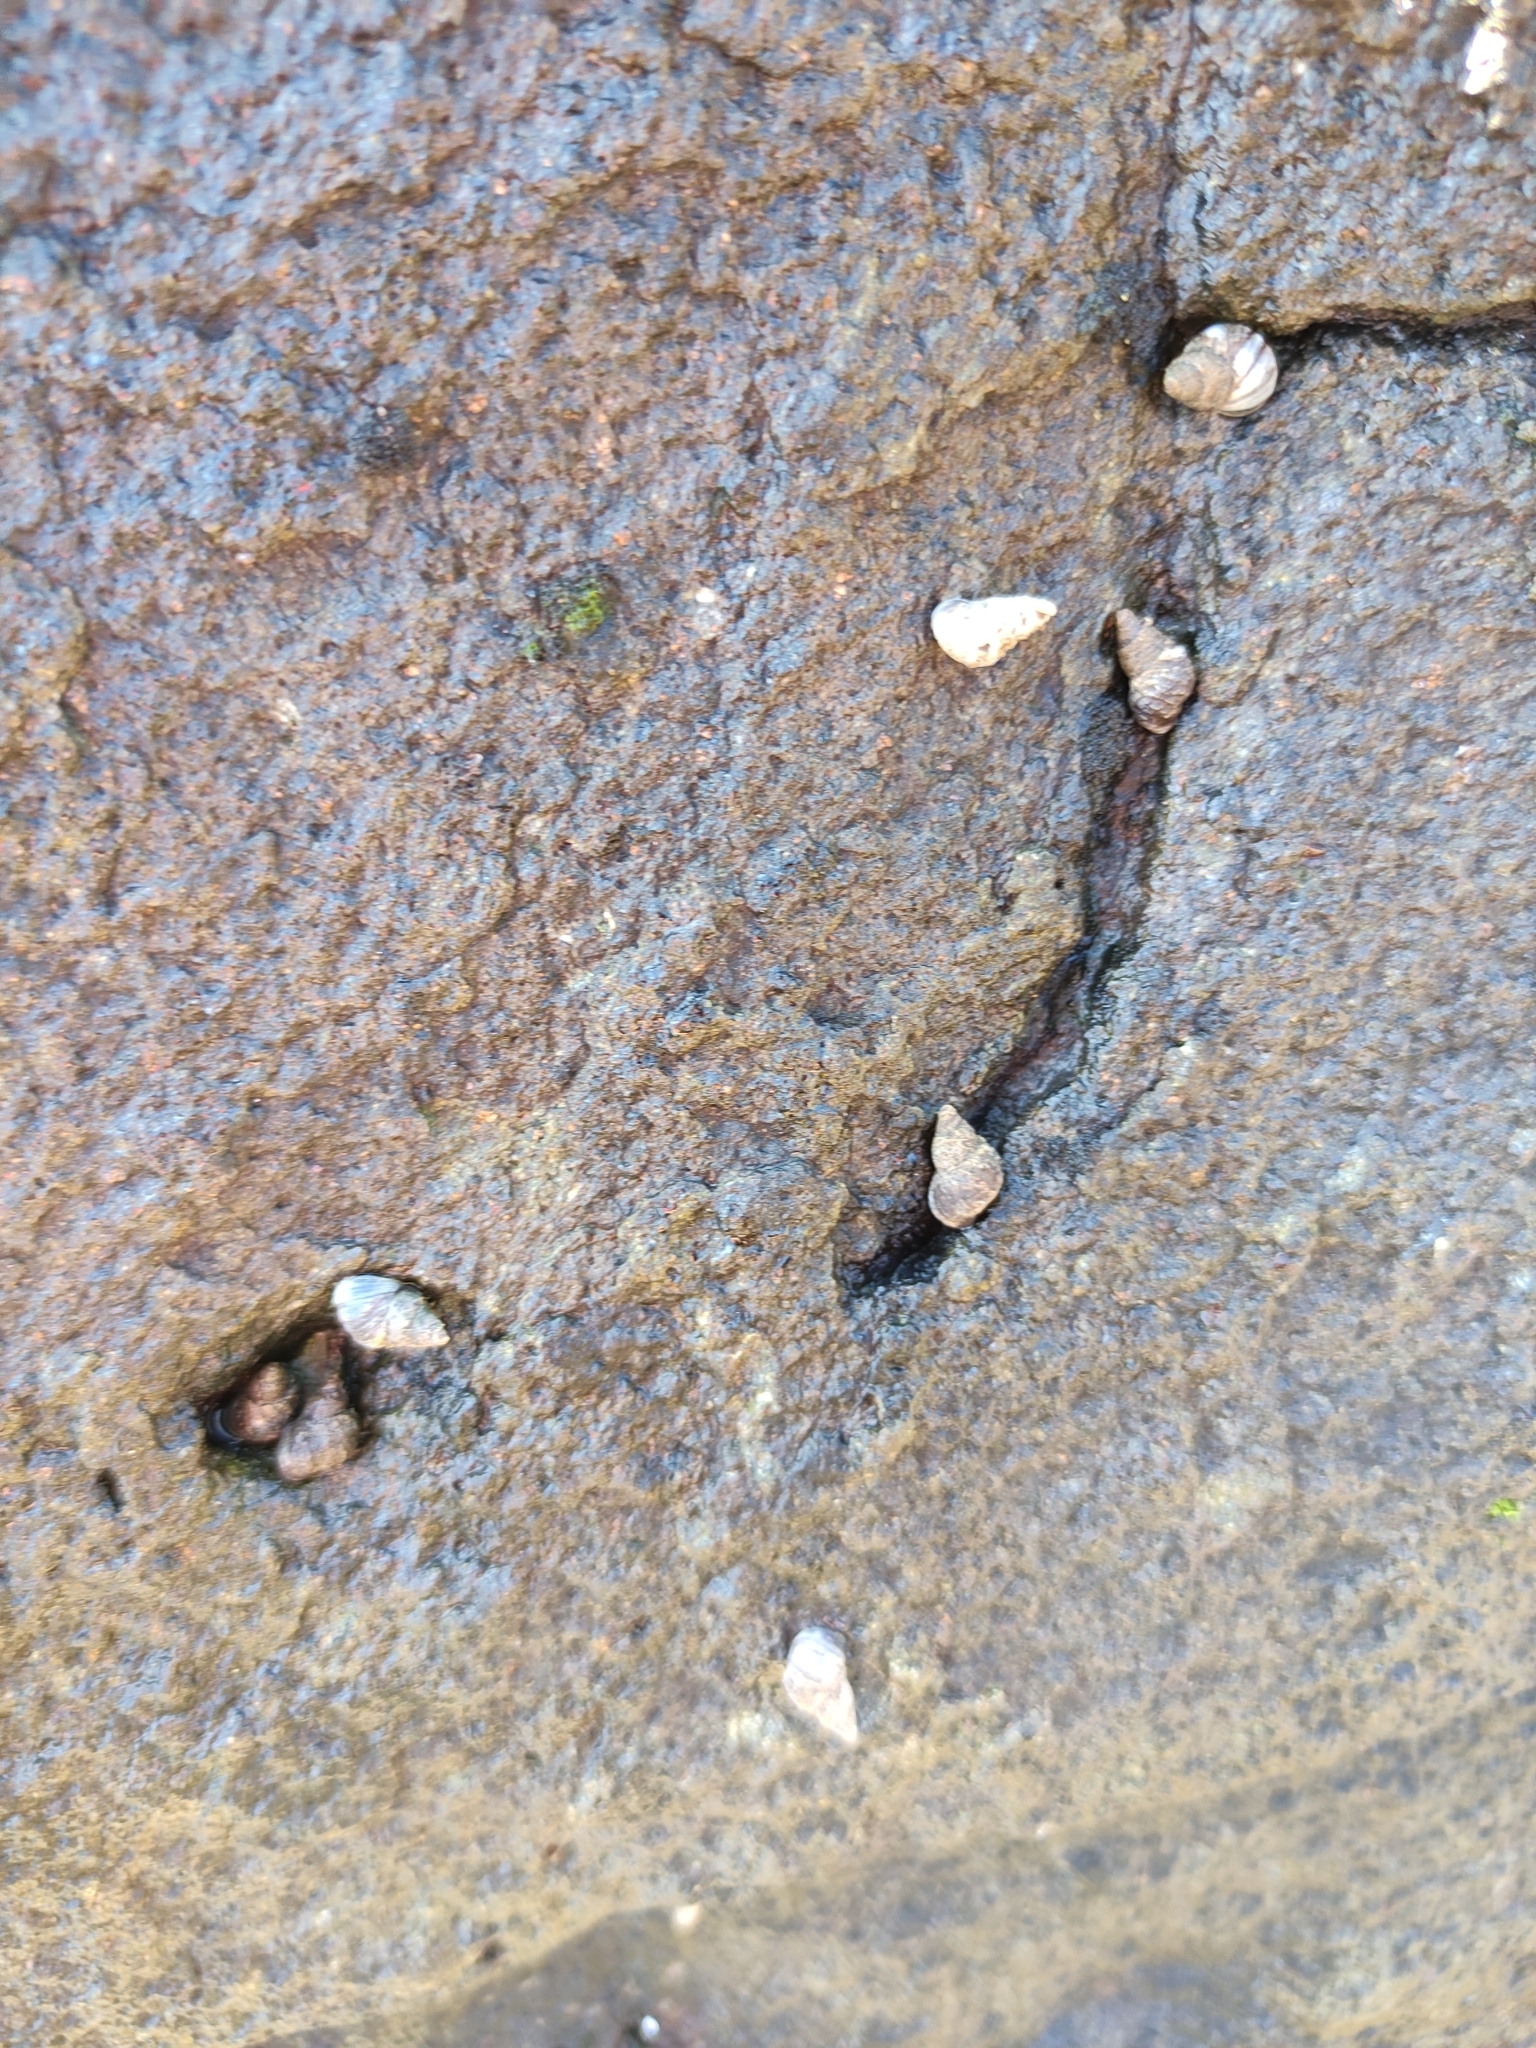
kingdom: Animalia
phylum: Mollusca
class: Gastropoda
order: Littorinimorpha
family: Littorinidae
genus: Austrolittorina
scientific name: Austrolittorina antipodum
